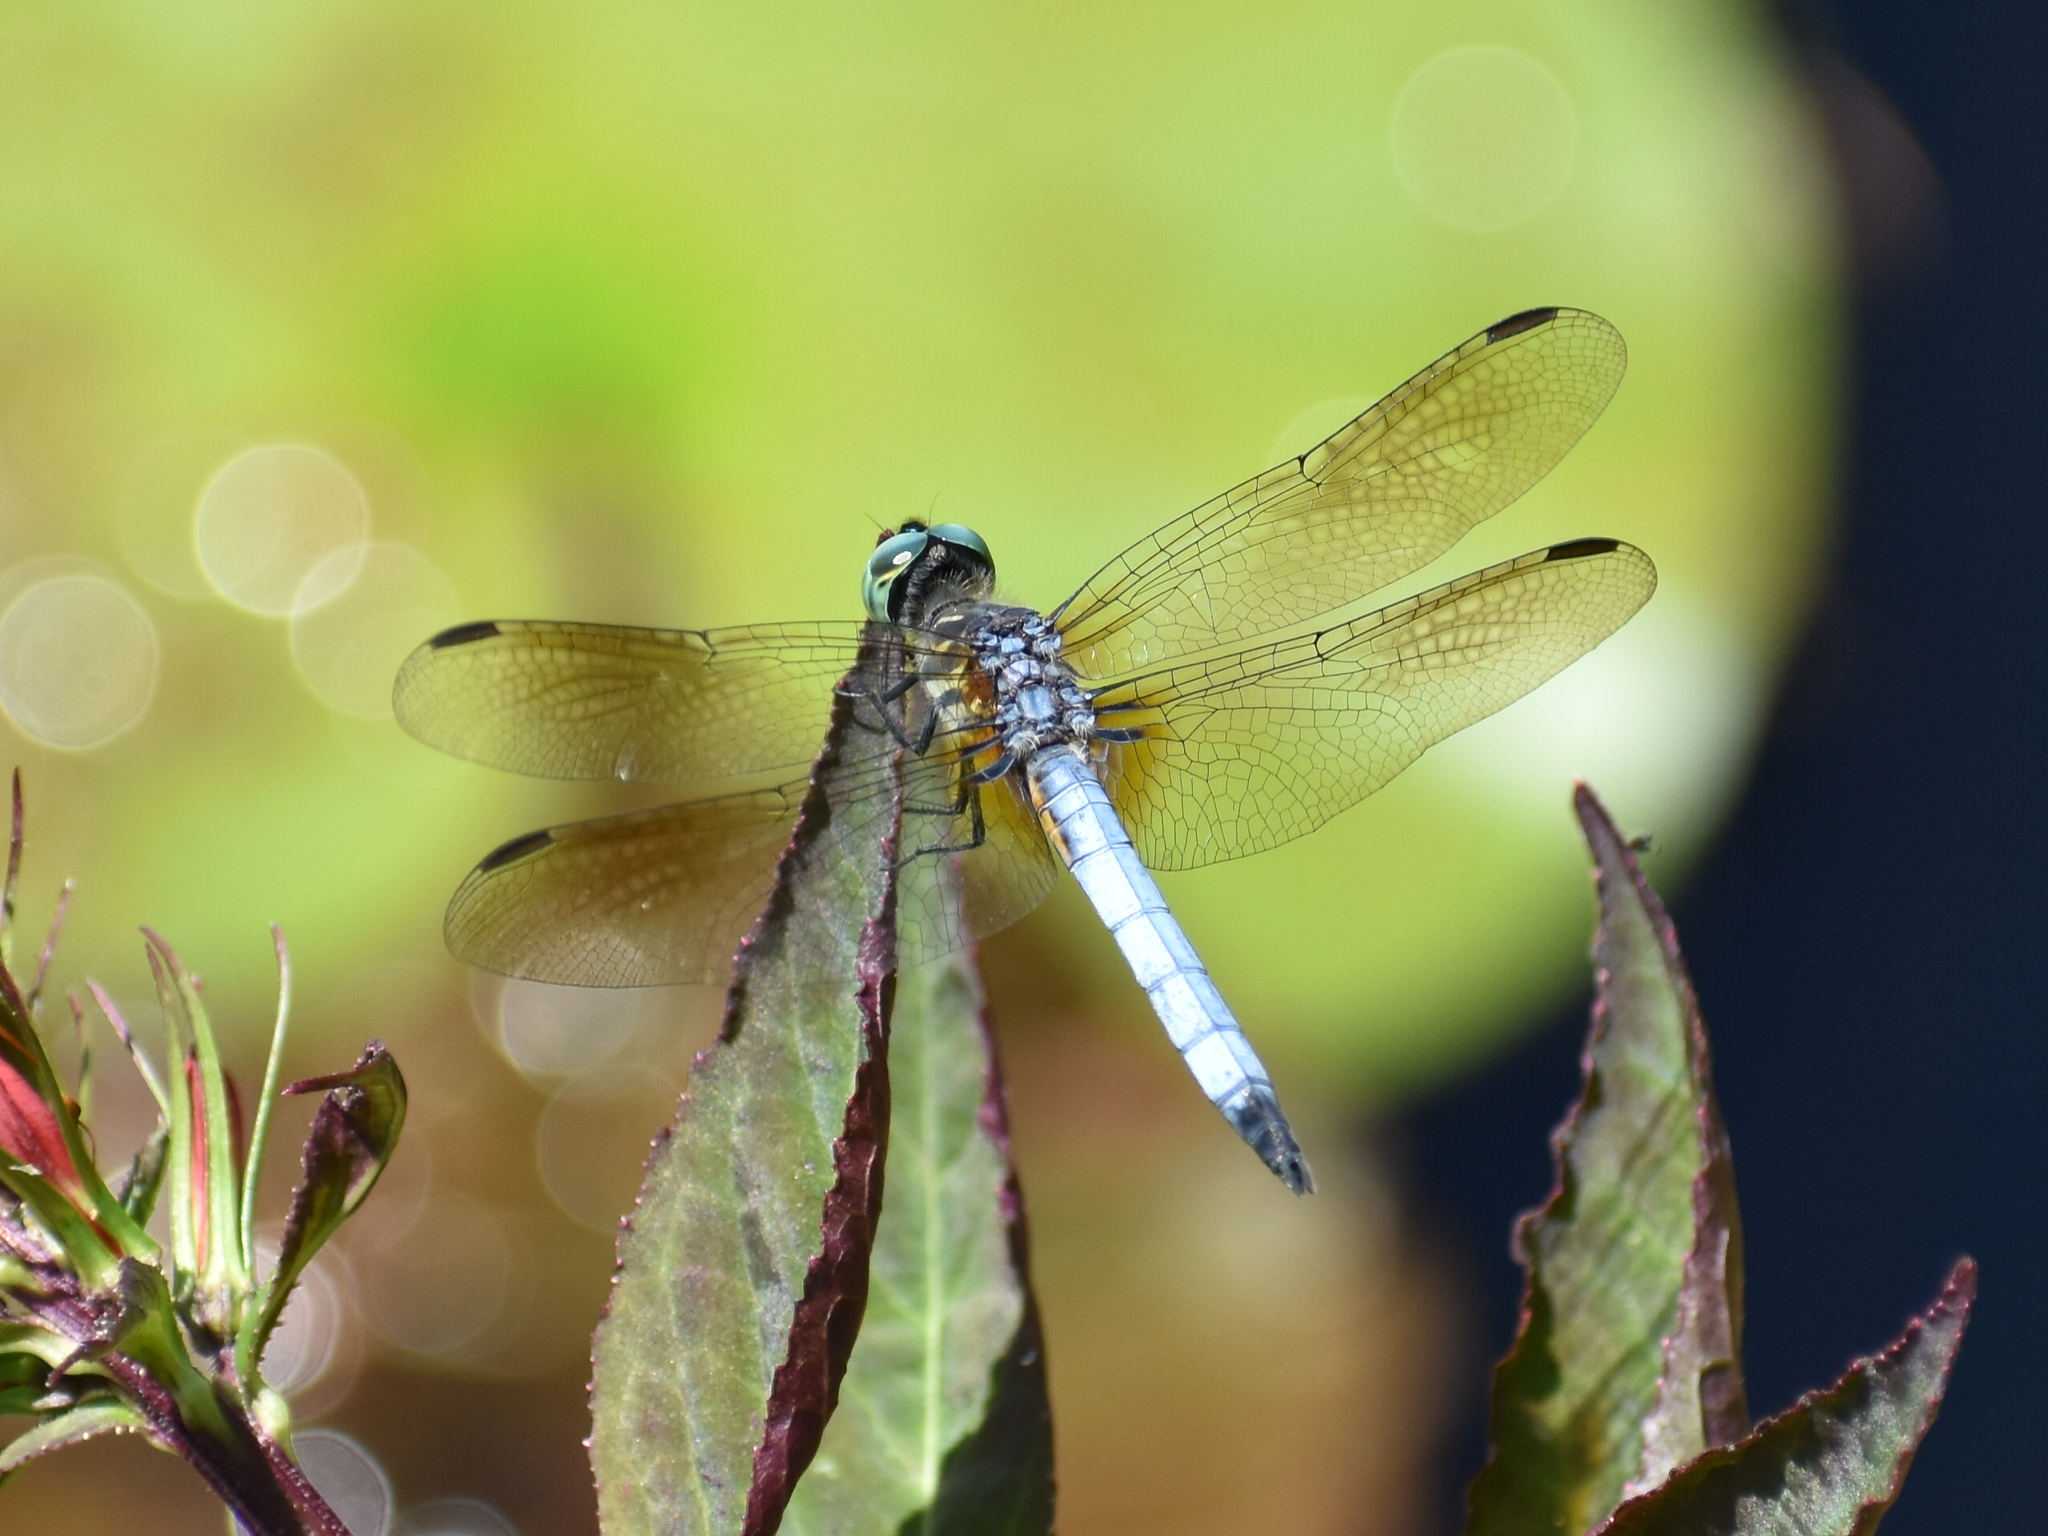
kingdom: Animalia
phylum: Arthropoda
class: Insecta
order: Odonata
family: Libellulidae
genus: Pachydiplax
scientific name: Pachydiplax longipennis
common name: Blue dasher
